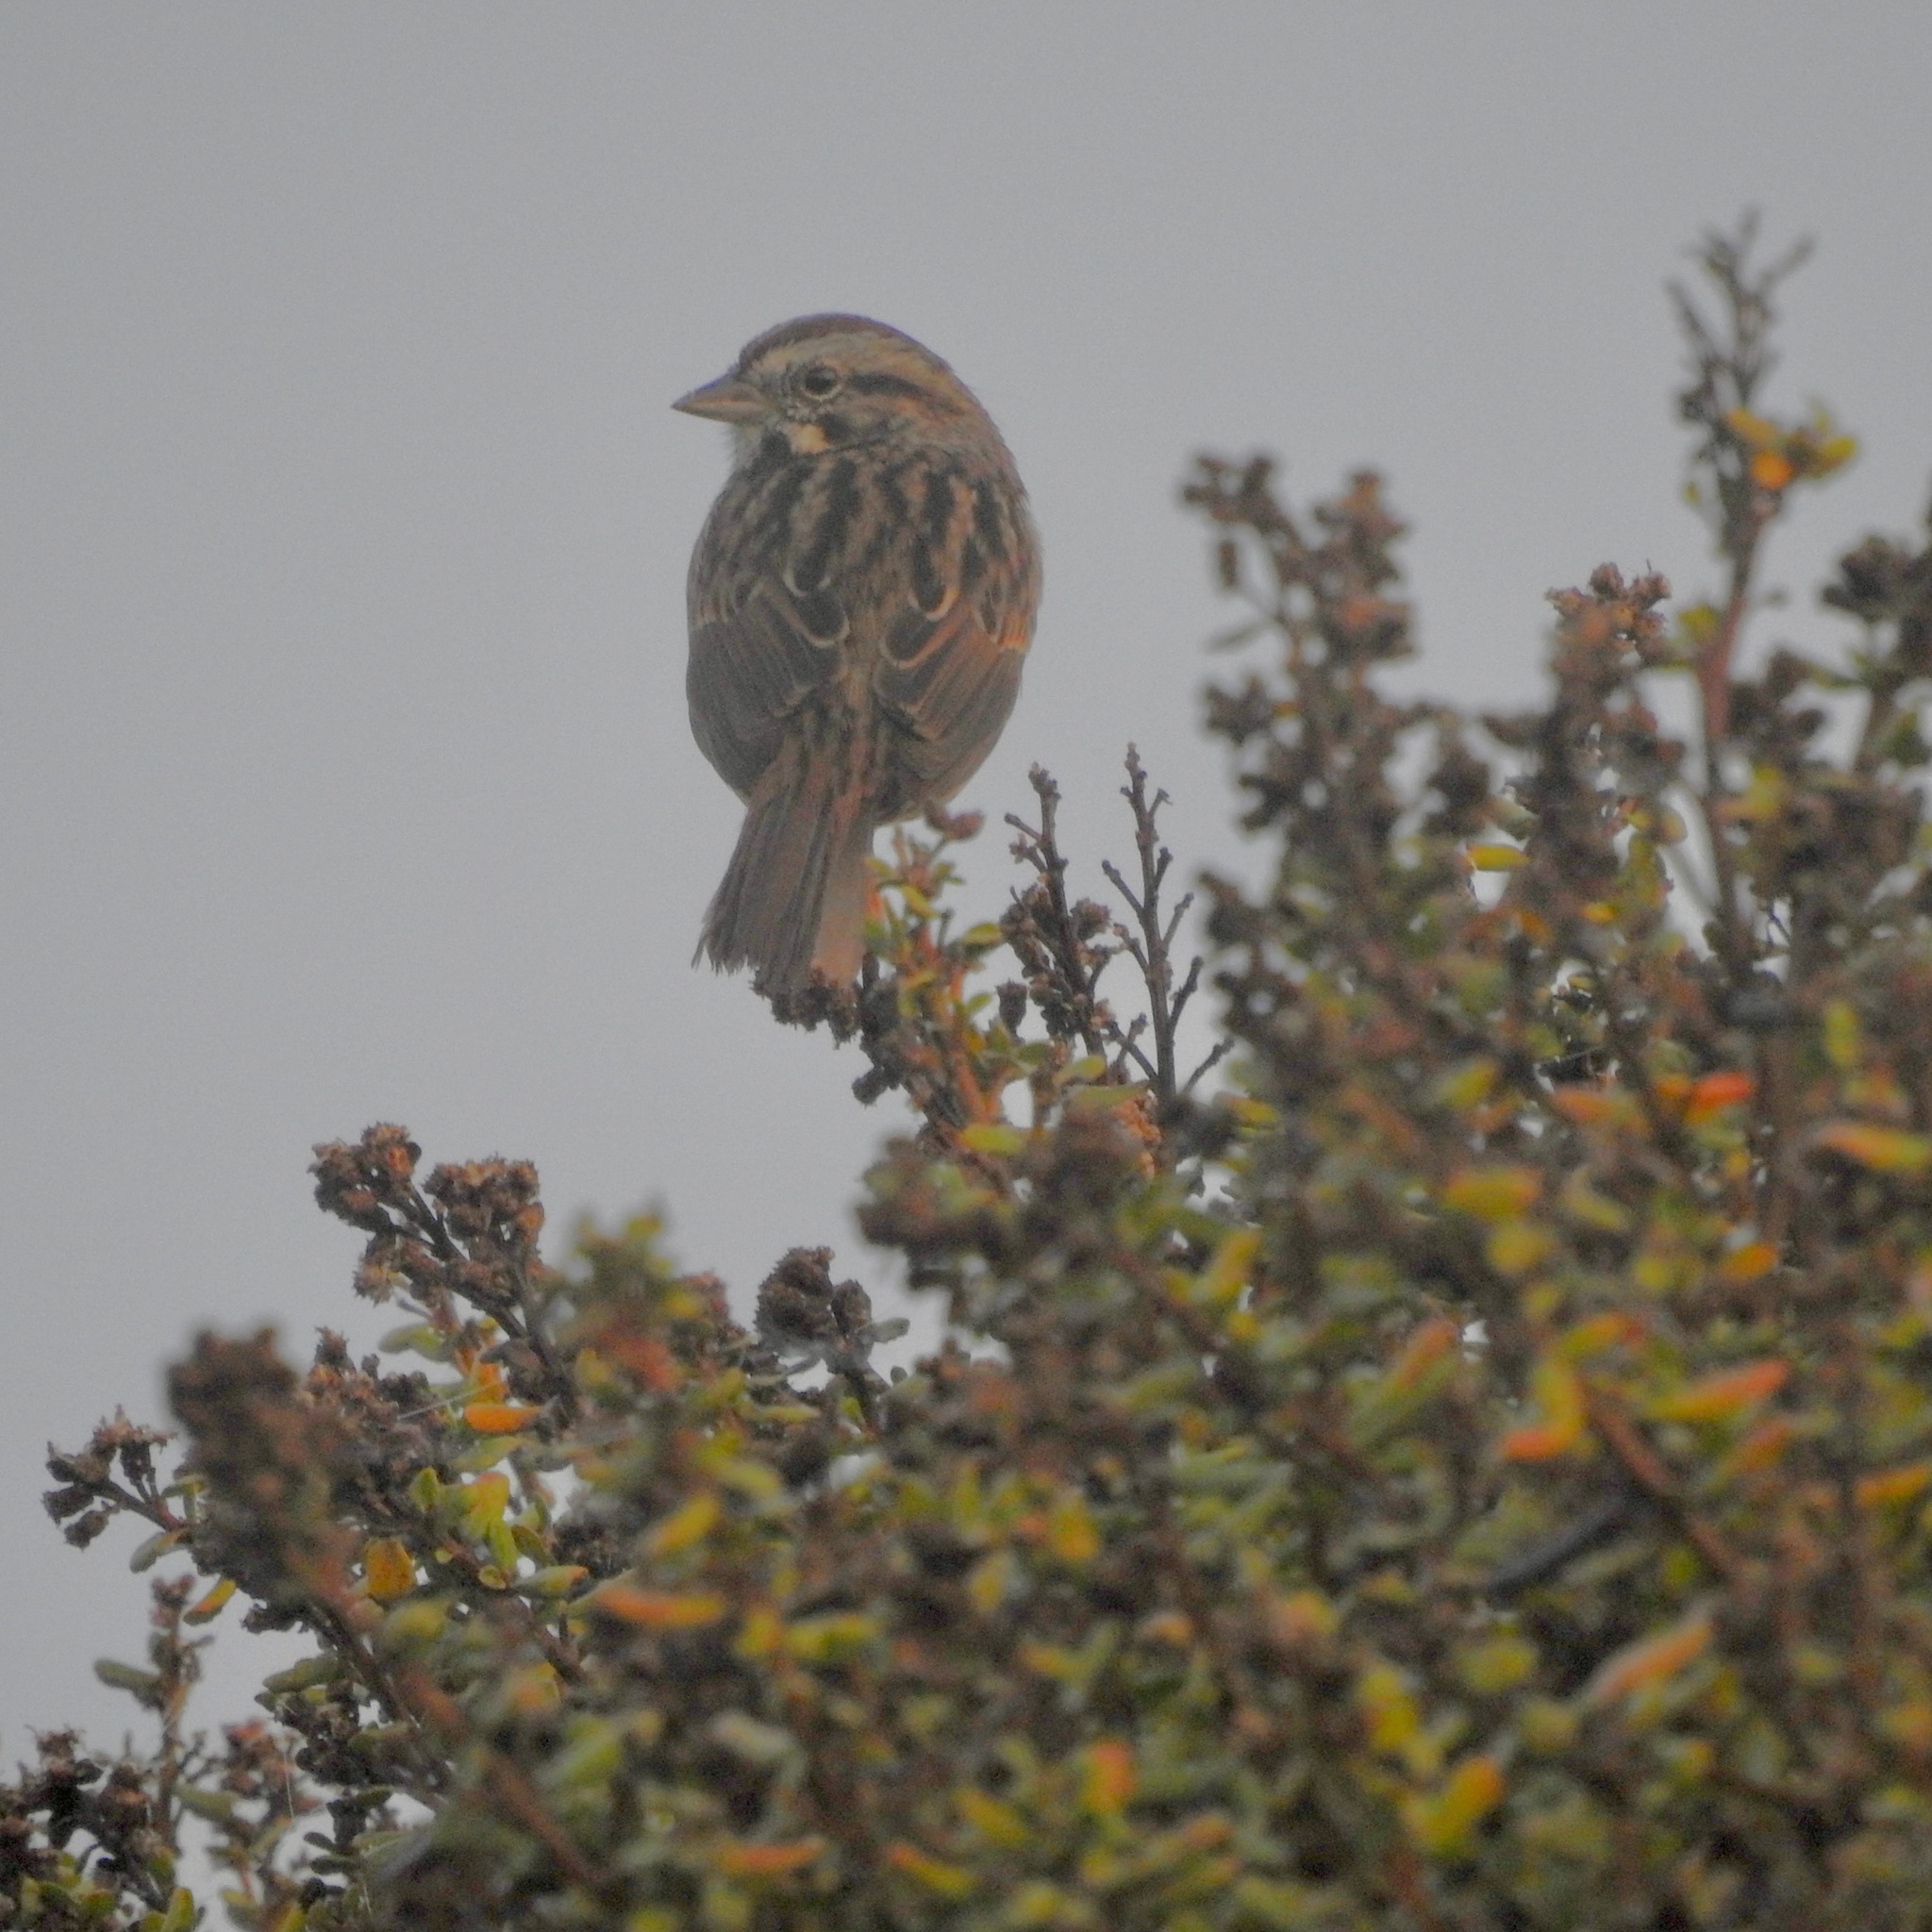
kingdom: Animalia
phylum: Chordata
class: Aves
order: Passeriformes
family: Passerellidae
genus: Melospiza
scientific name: Melospiza melodia
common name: Song sparrow
